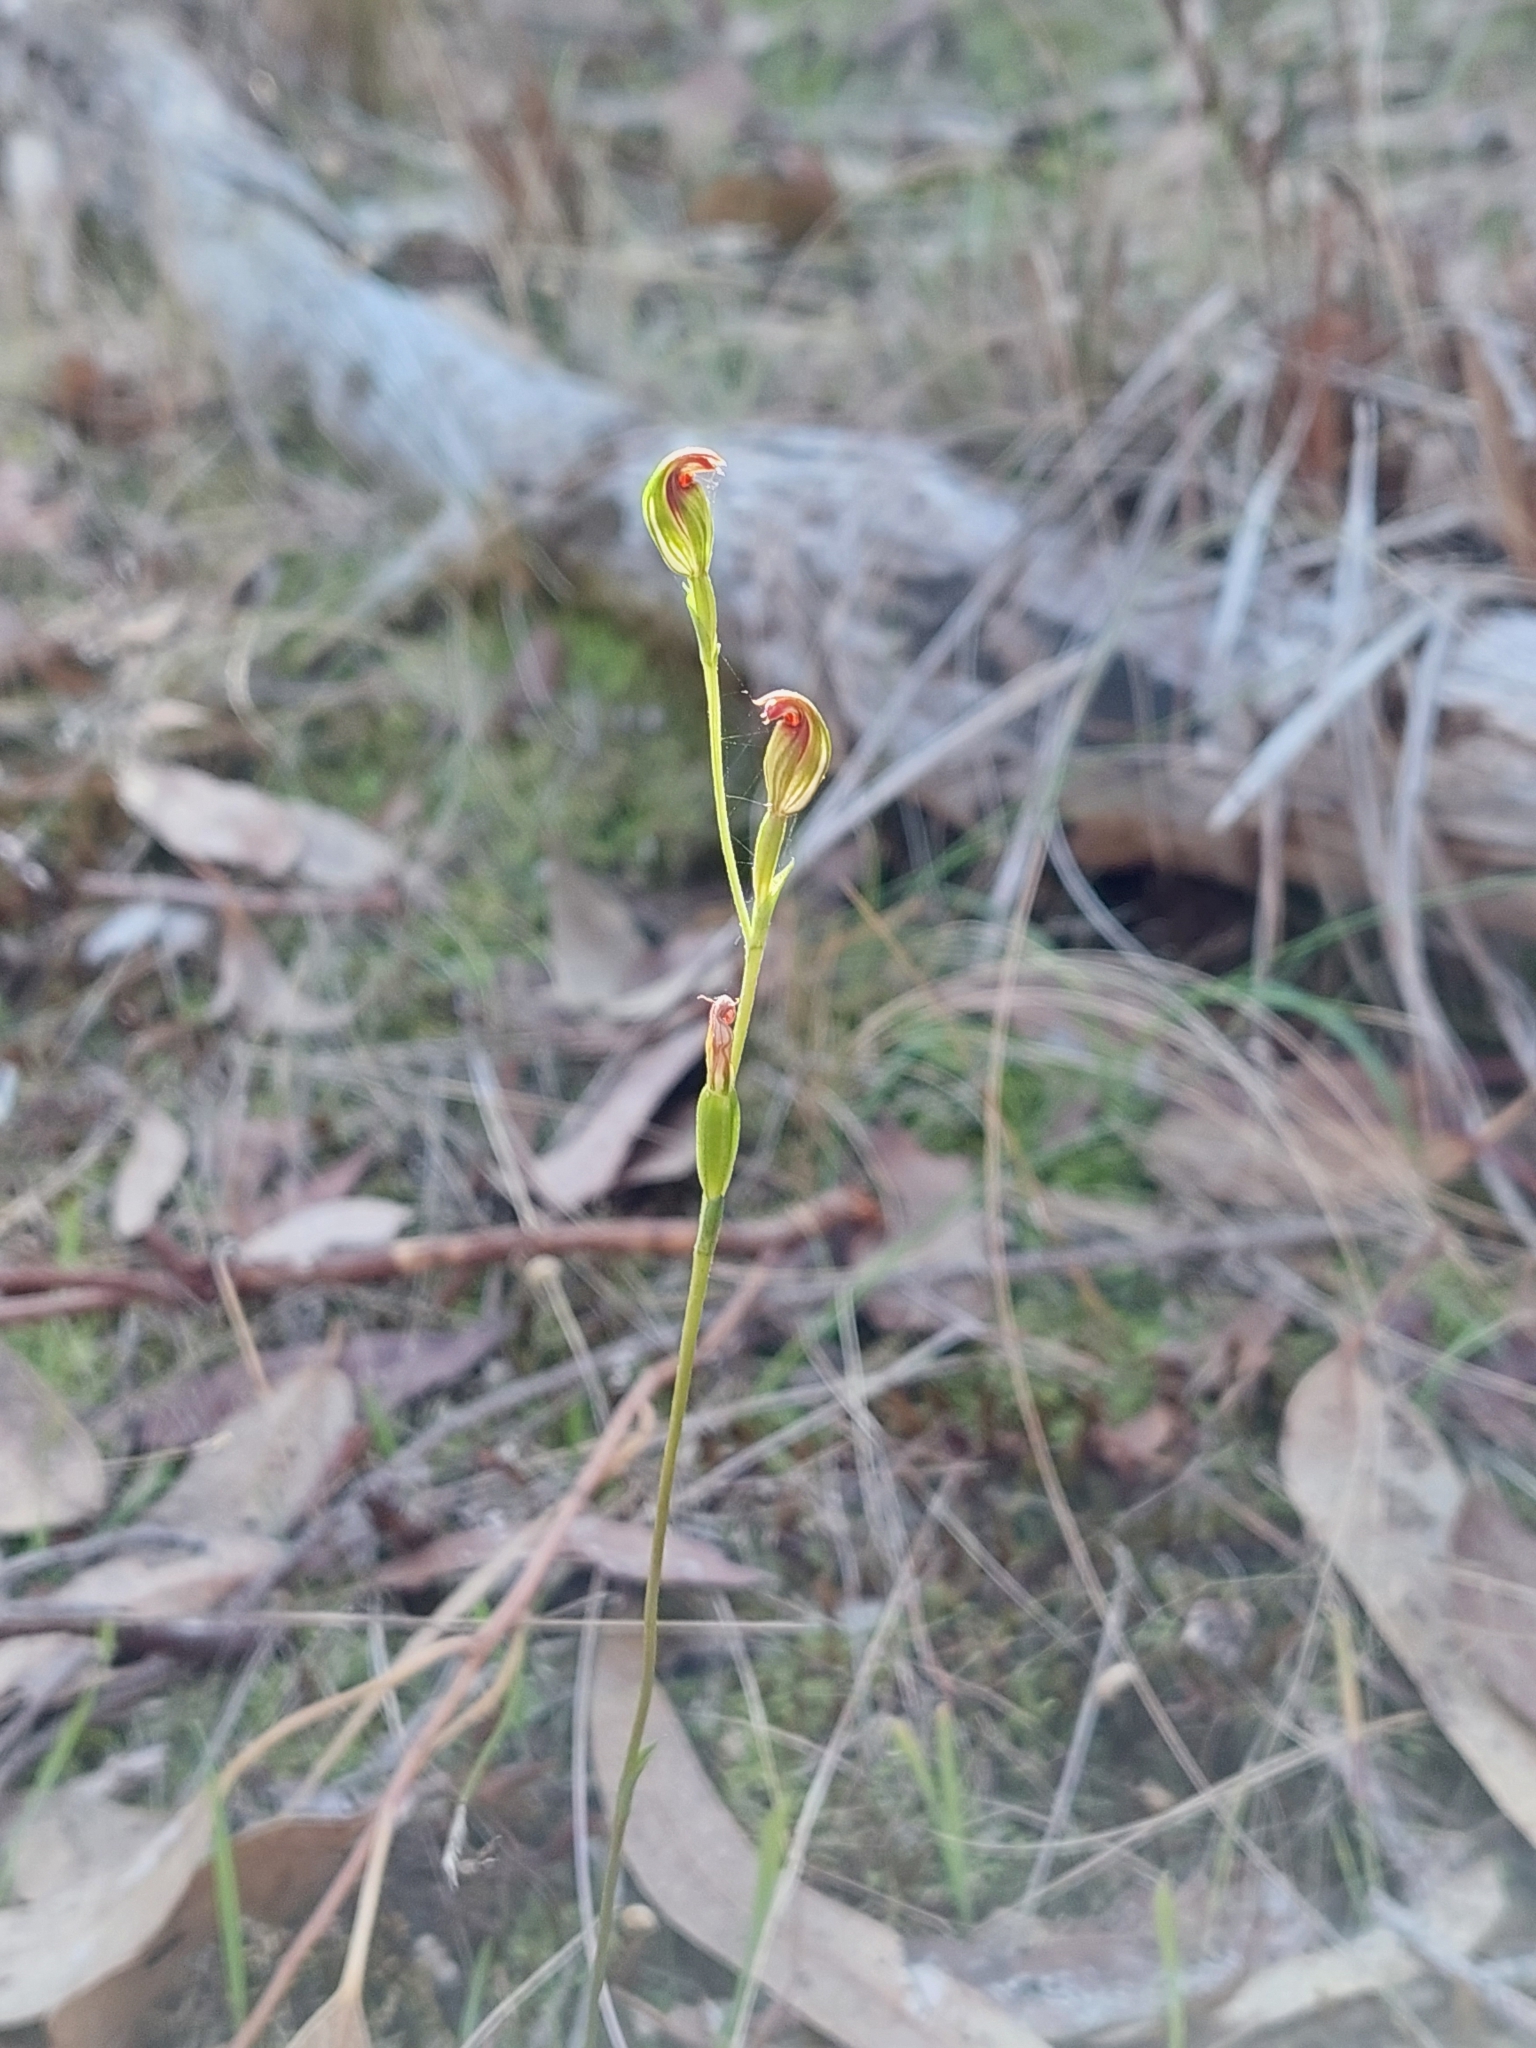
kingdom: Plantae
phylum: Tracheophyta
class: Liliopsida
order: Asparagales
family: Orchidaceae
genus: Pterostylis
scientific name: Pterostylis rubescens
